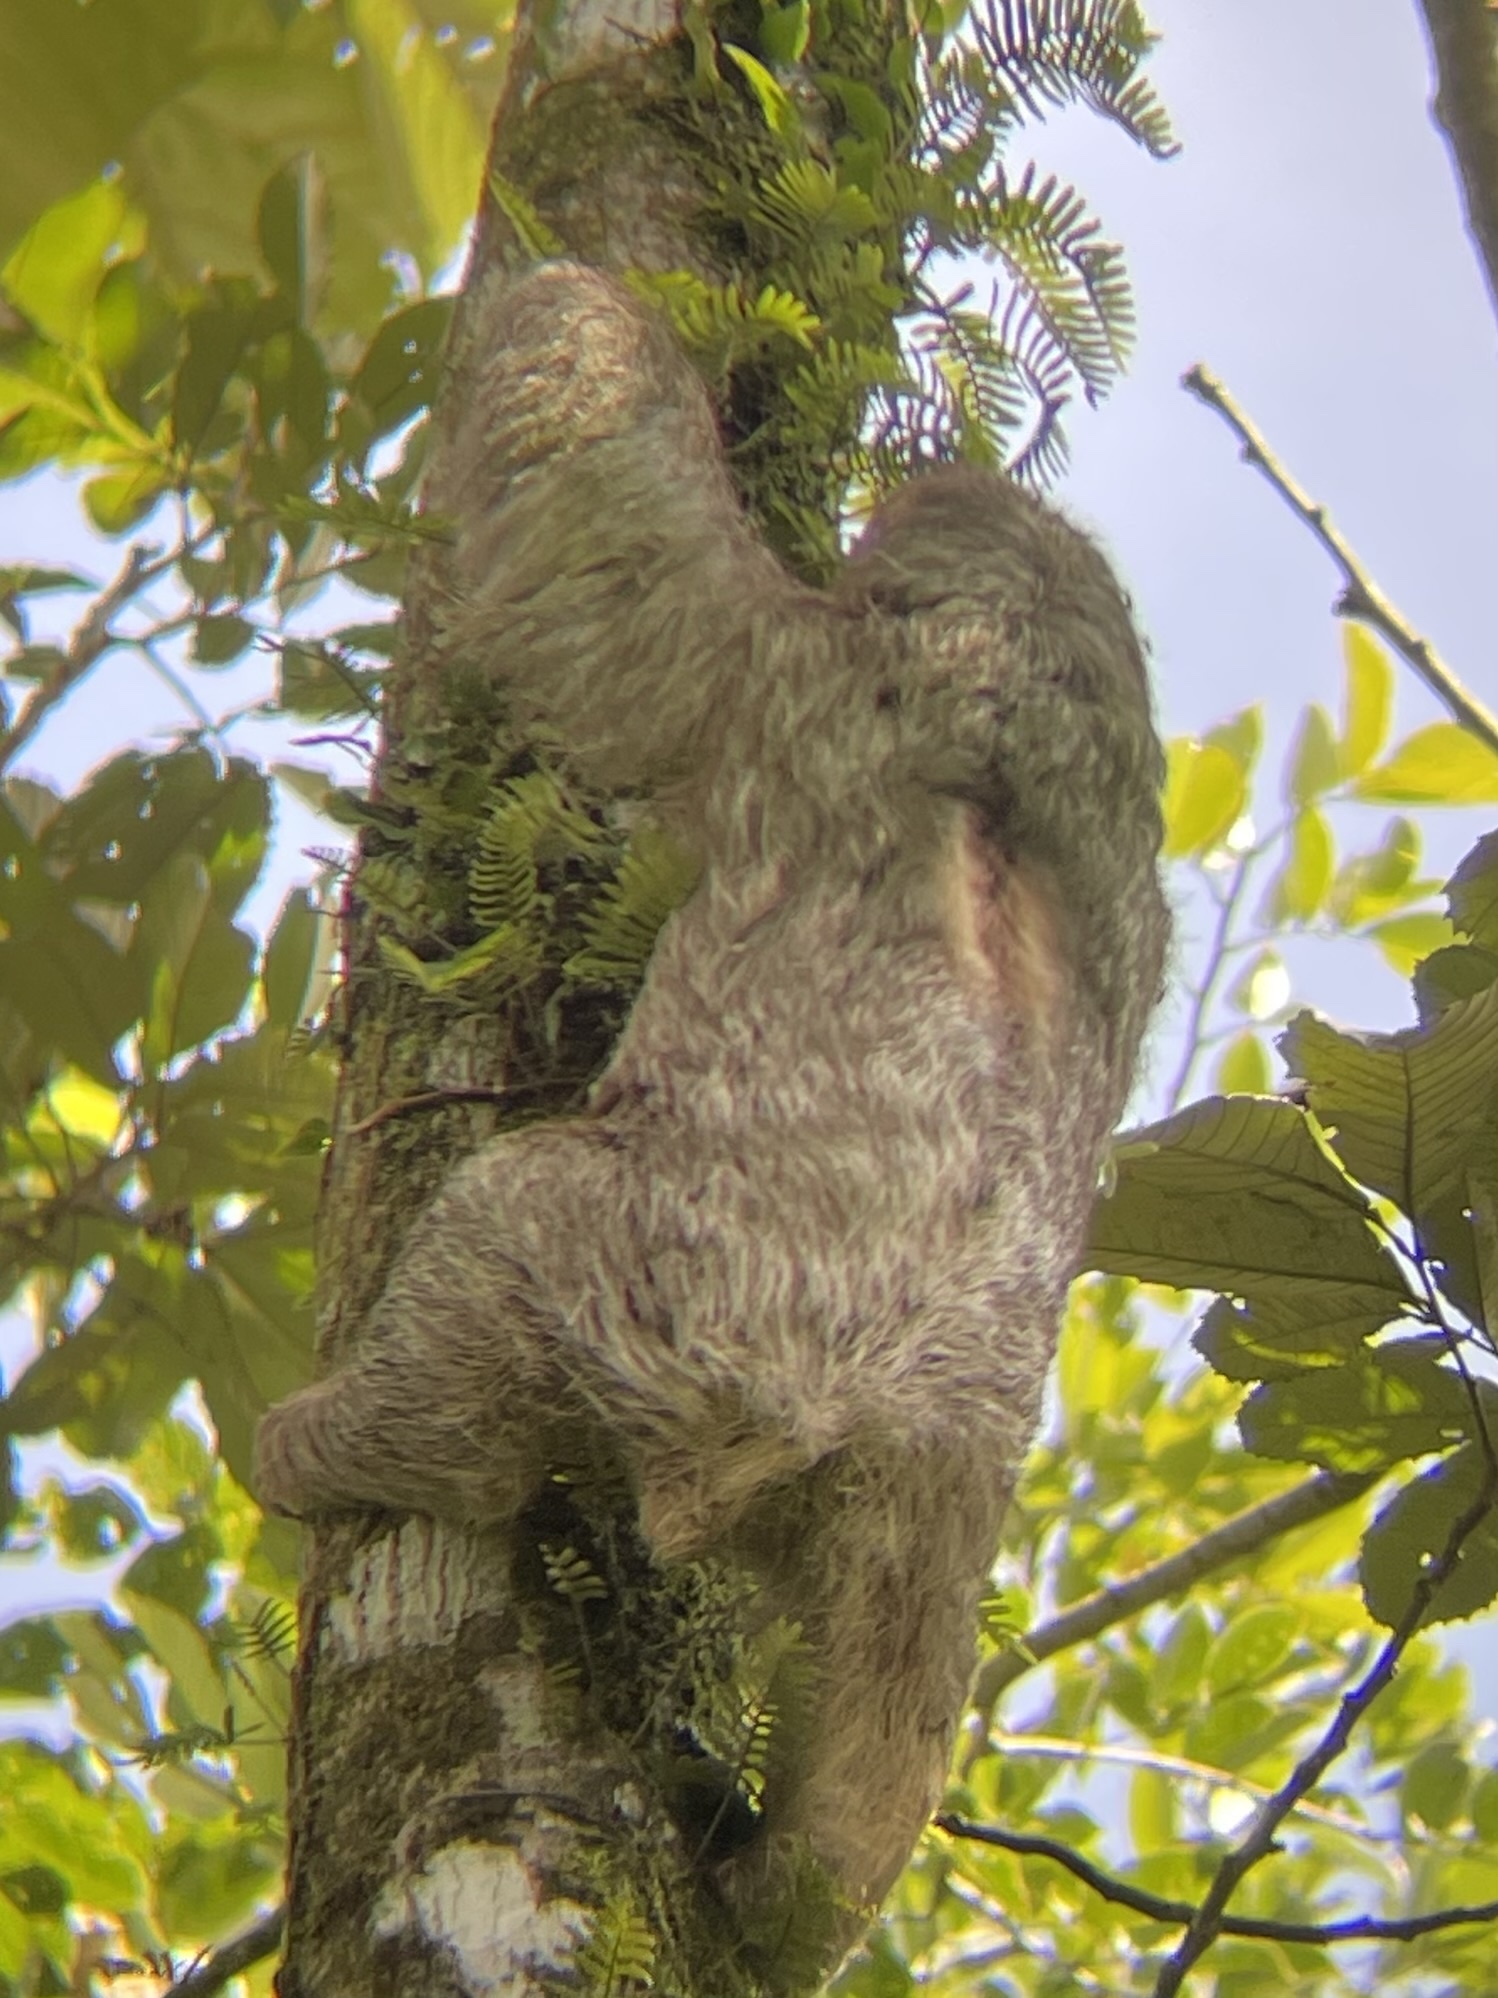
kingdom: Animalia
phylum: Chordata
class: Mammalia
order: Pilosa
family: Bradypodidae
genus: Bradypus
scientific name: Bradypus variegatus
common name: Brown-throated three-toed sloth
